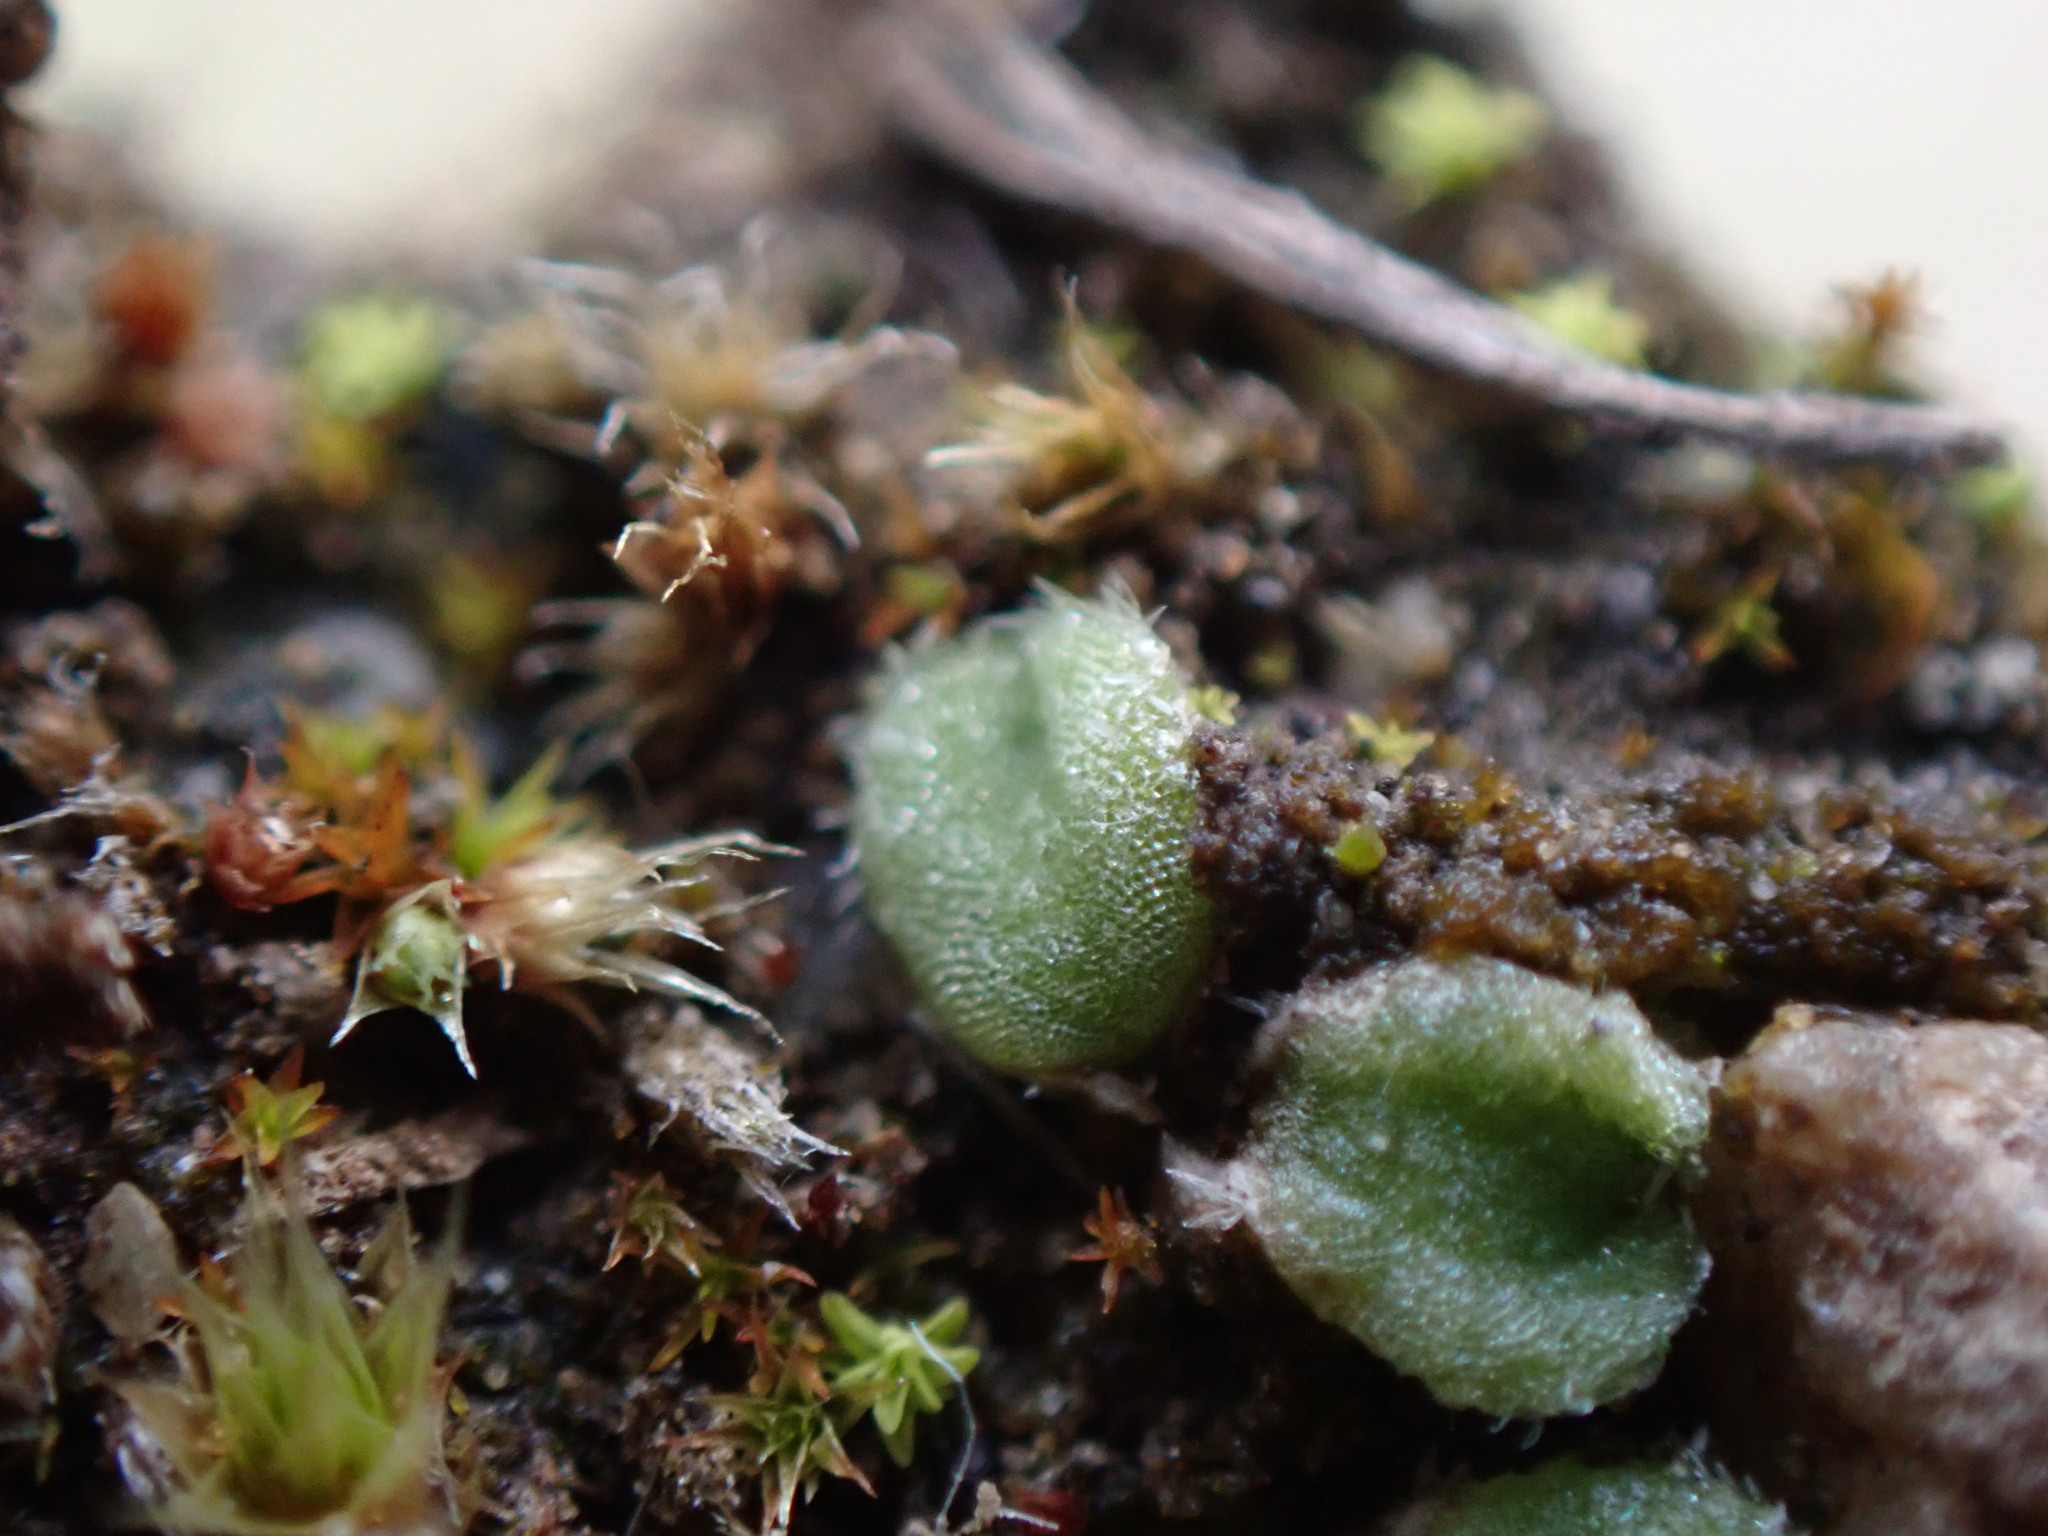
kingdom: Plantae
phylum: Marchantiophyta
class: Marchantiopsida
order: Marchantiales
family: Ricciaceae
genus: Riccia
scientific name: Riccia beyrichiana
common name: Purple crystalwort
